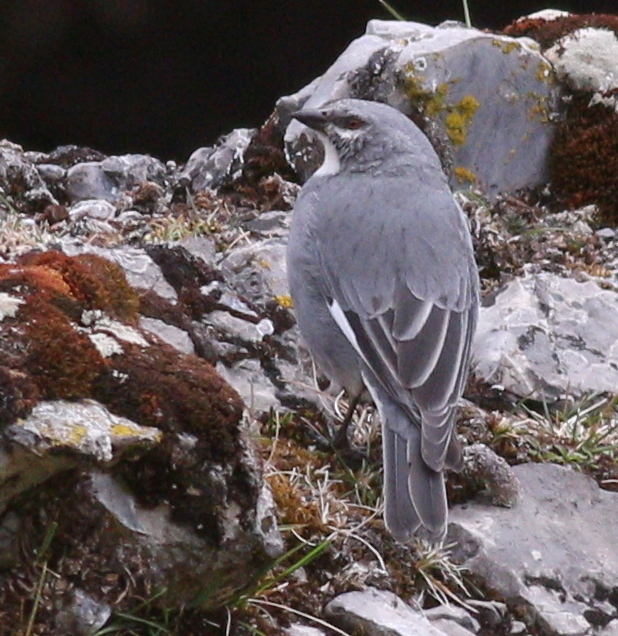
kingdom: Animalia
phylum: Chordata
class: Aves
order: Passeriformes
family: Thraupidae
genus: Idiopsar
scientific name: Idiopsar speculifer
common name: Glacier finch
